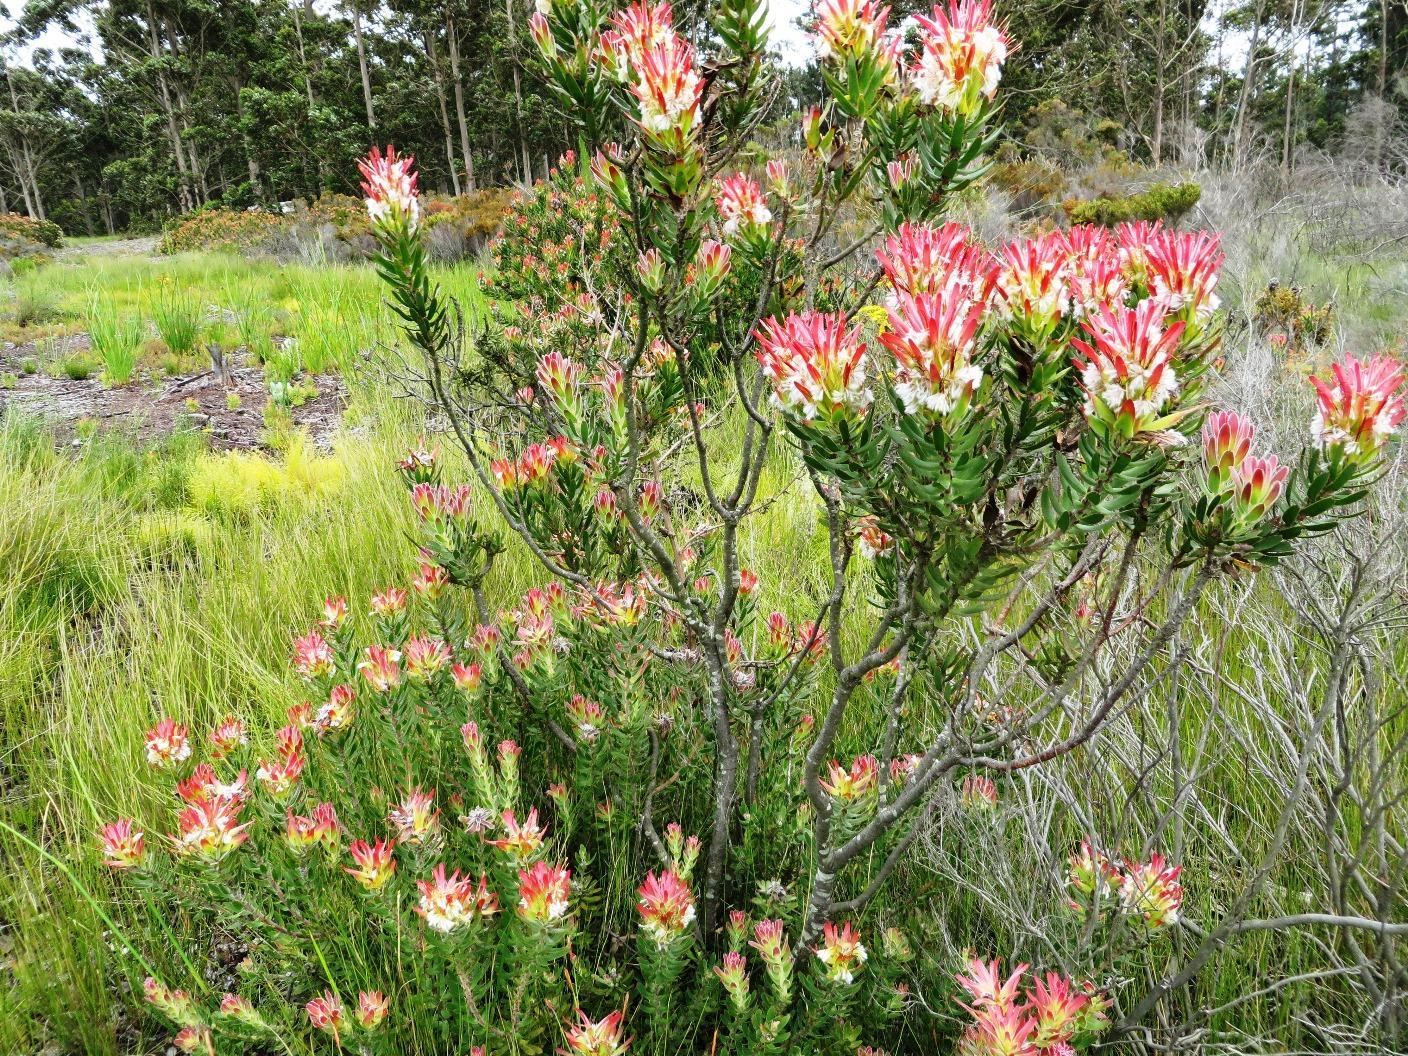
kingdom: Plantae
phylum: Tracheophyta
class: Magnoliopsida
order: Proteales
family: Proteaceae
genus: Mimetes
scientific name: Mimetes cucullatus
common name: Common pagoda
